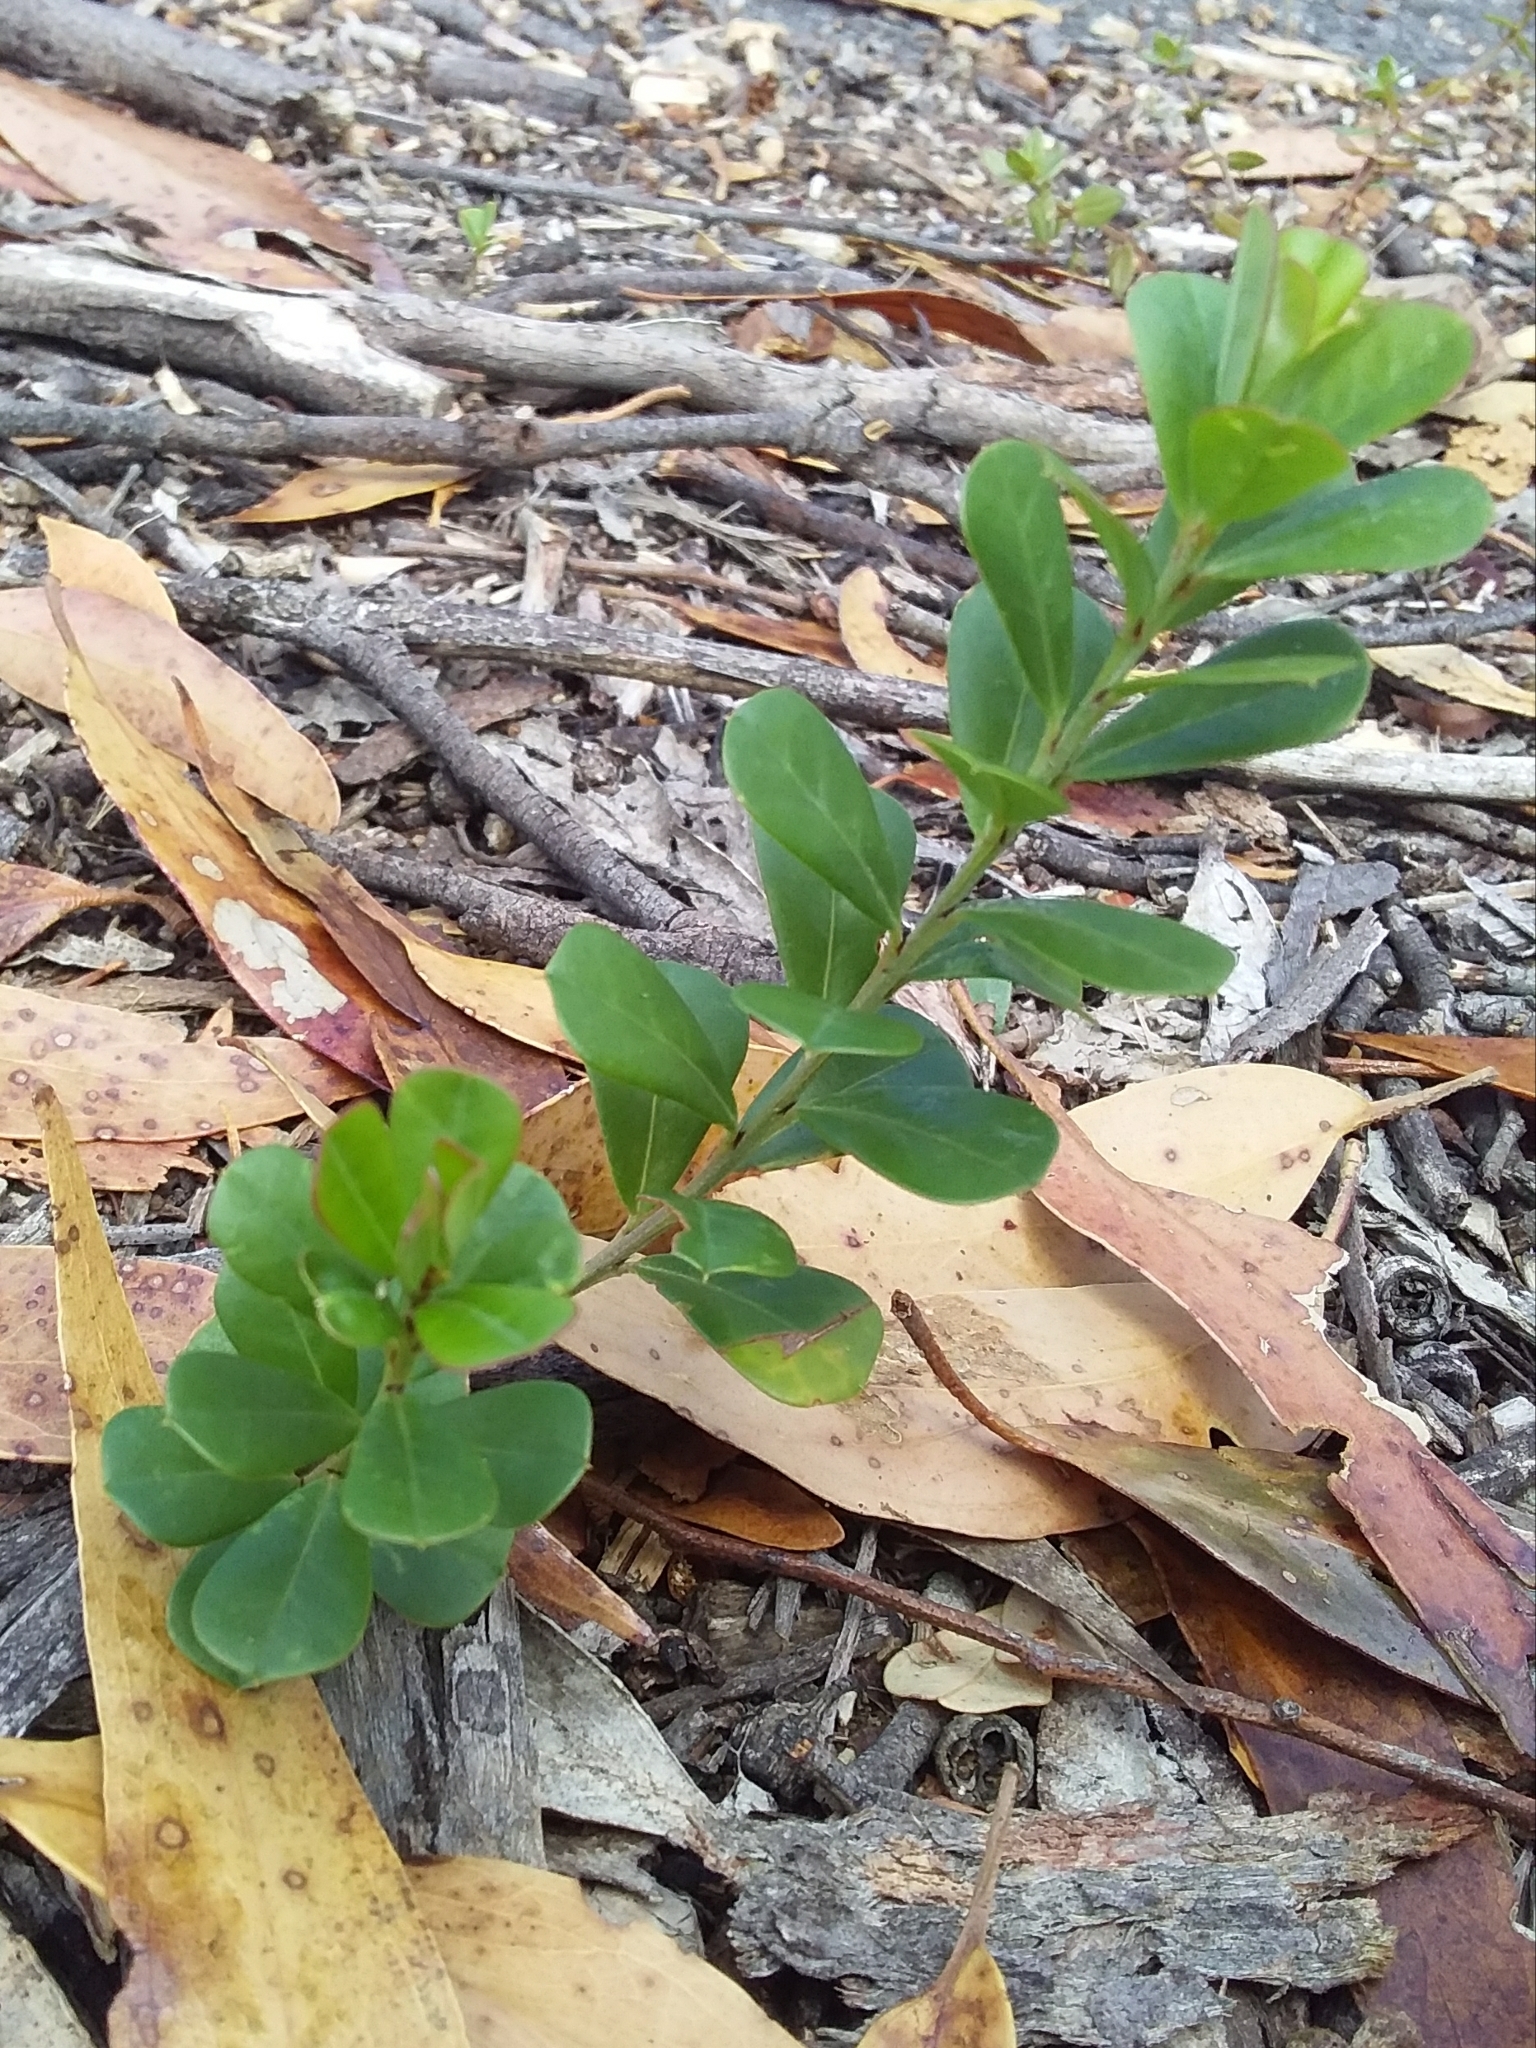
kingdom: Plantae
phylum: Tracheophyta
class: Magnoliopsida
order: Fabales
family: Fabaceae
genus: Pultenaea
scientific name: Pultenaea daphnoides
